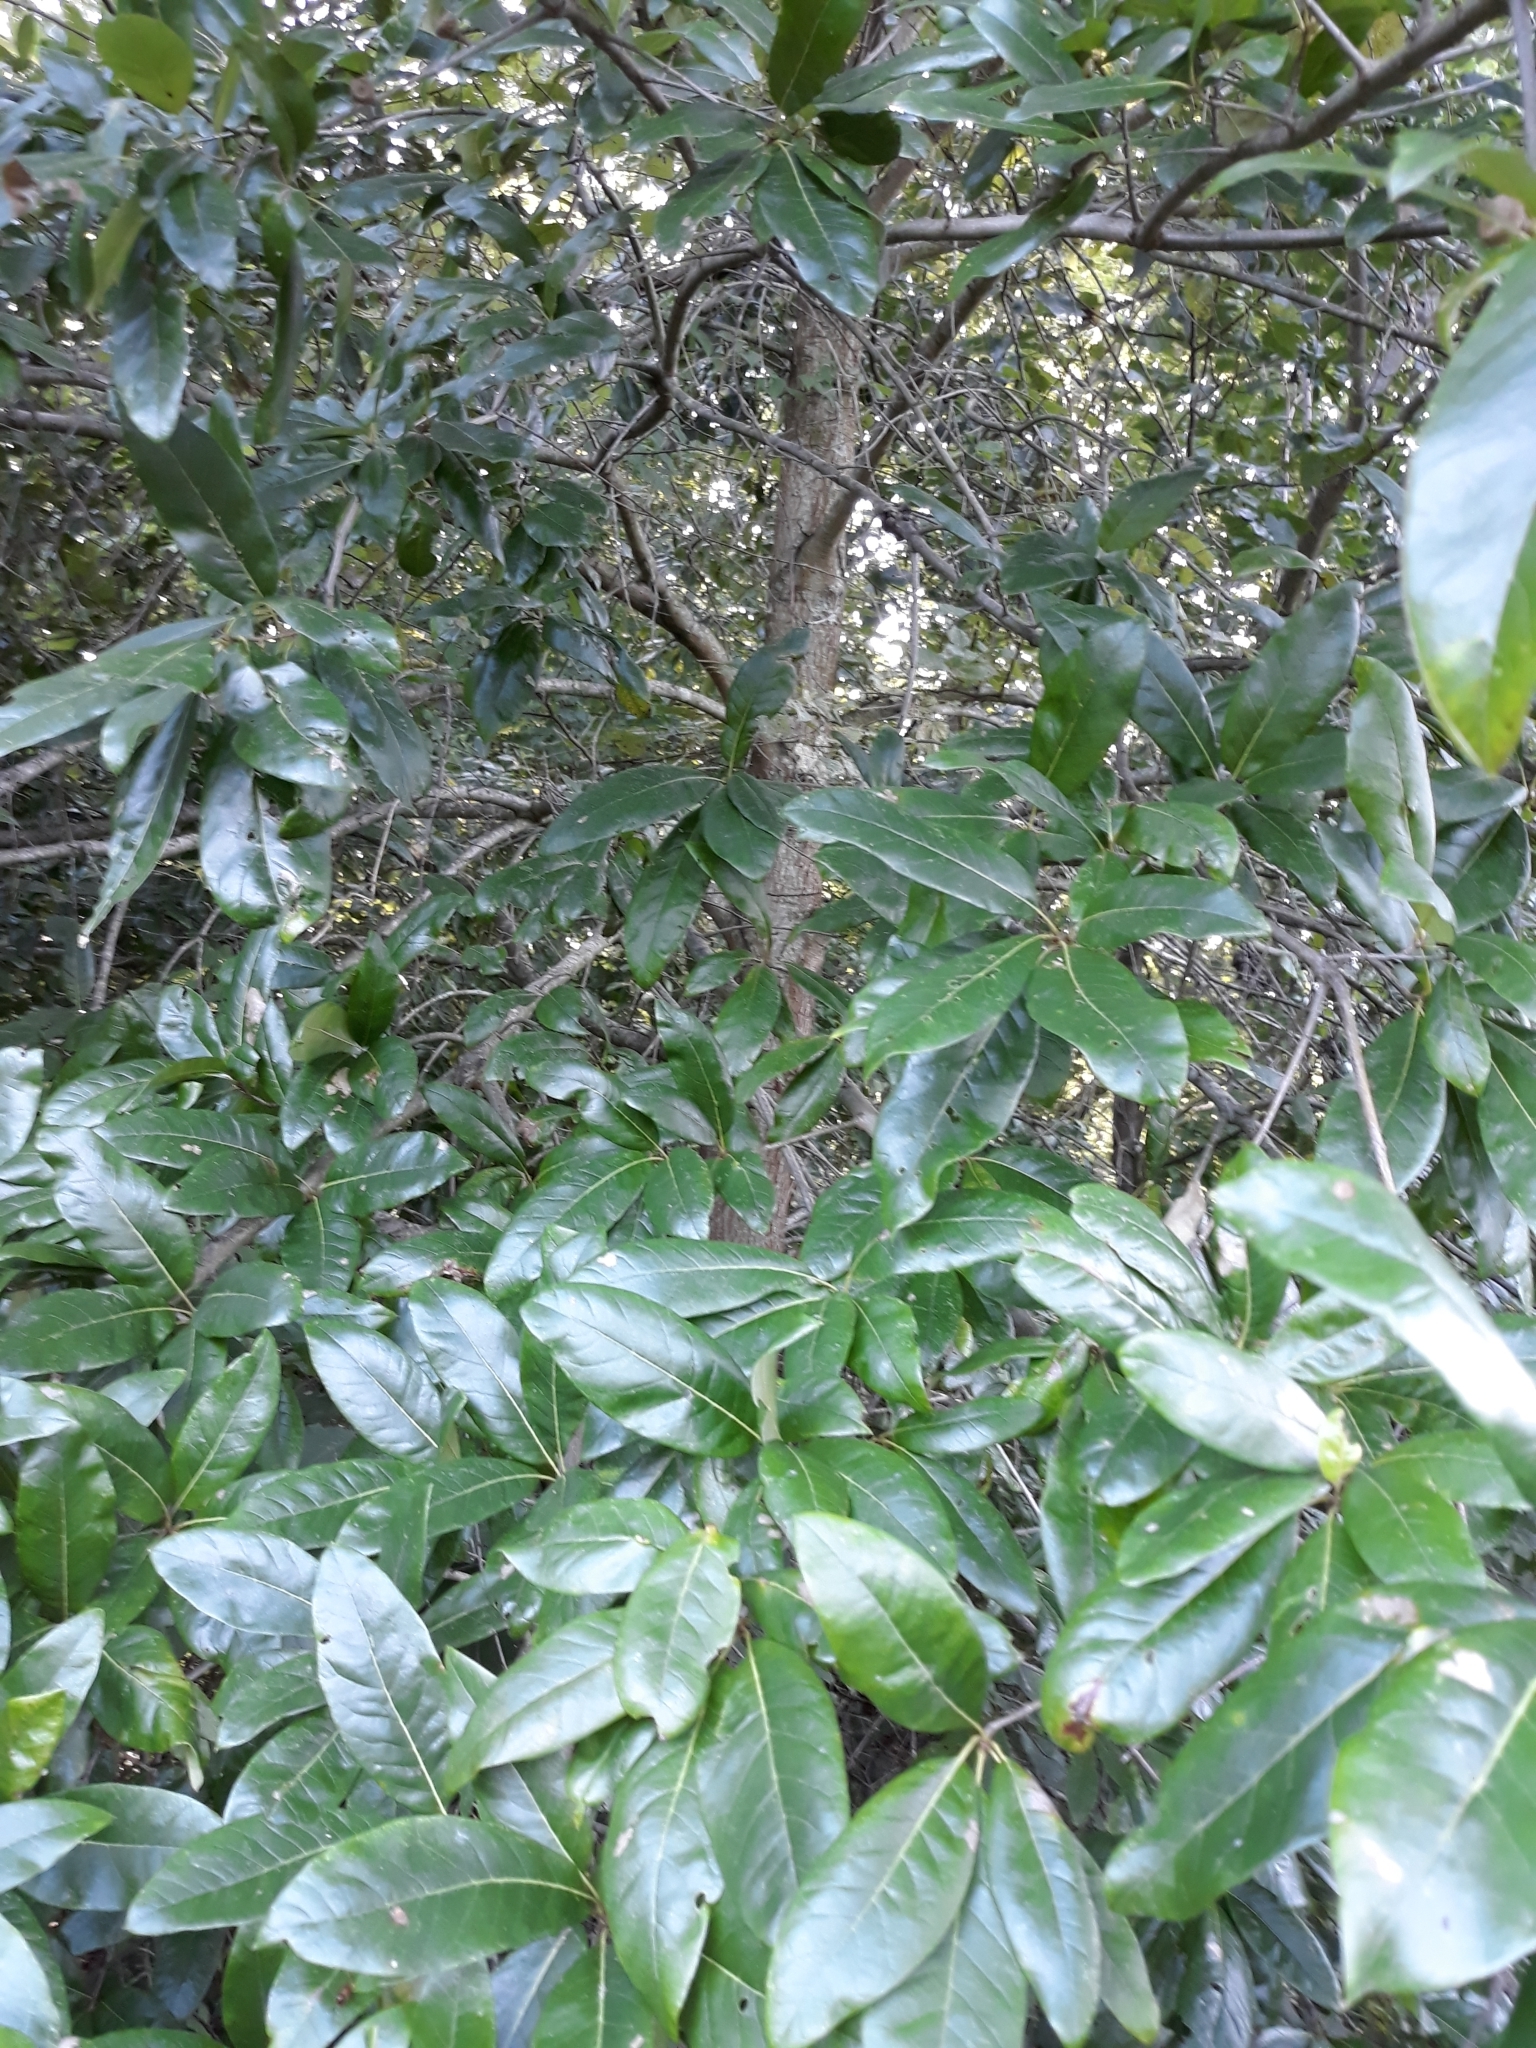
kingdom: Plantae
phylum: Tracheophyta
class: Magnoliopsida
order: Fagales
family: Fagaceae
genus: Quercus
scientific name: Quercus imbricaria
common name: Shingle oak
